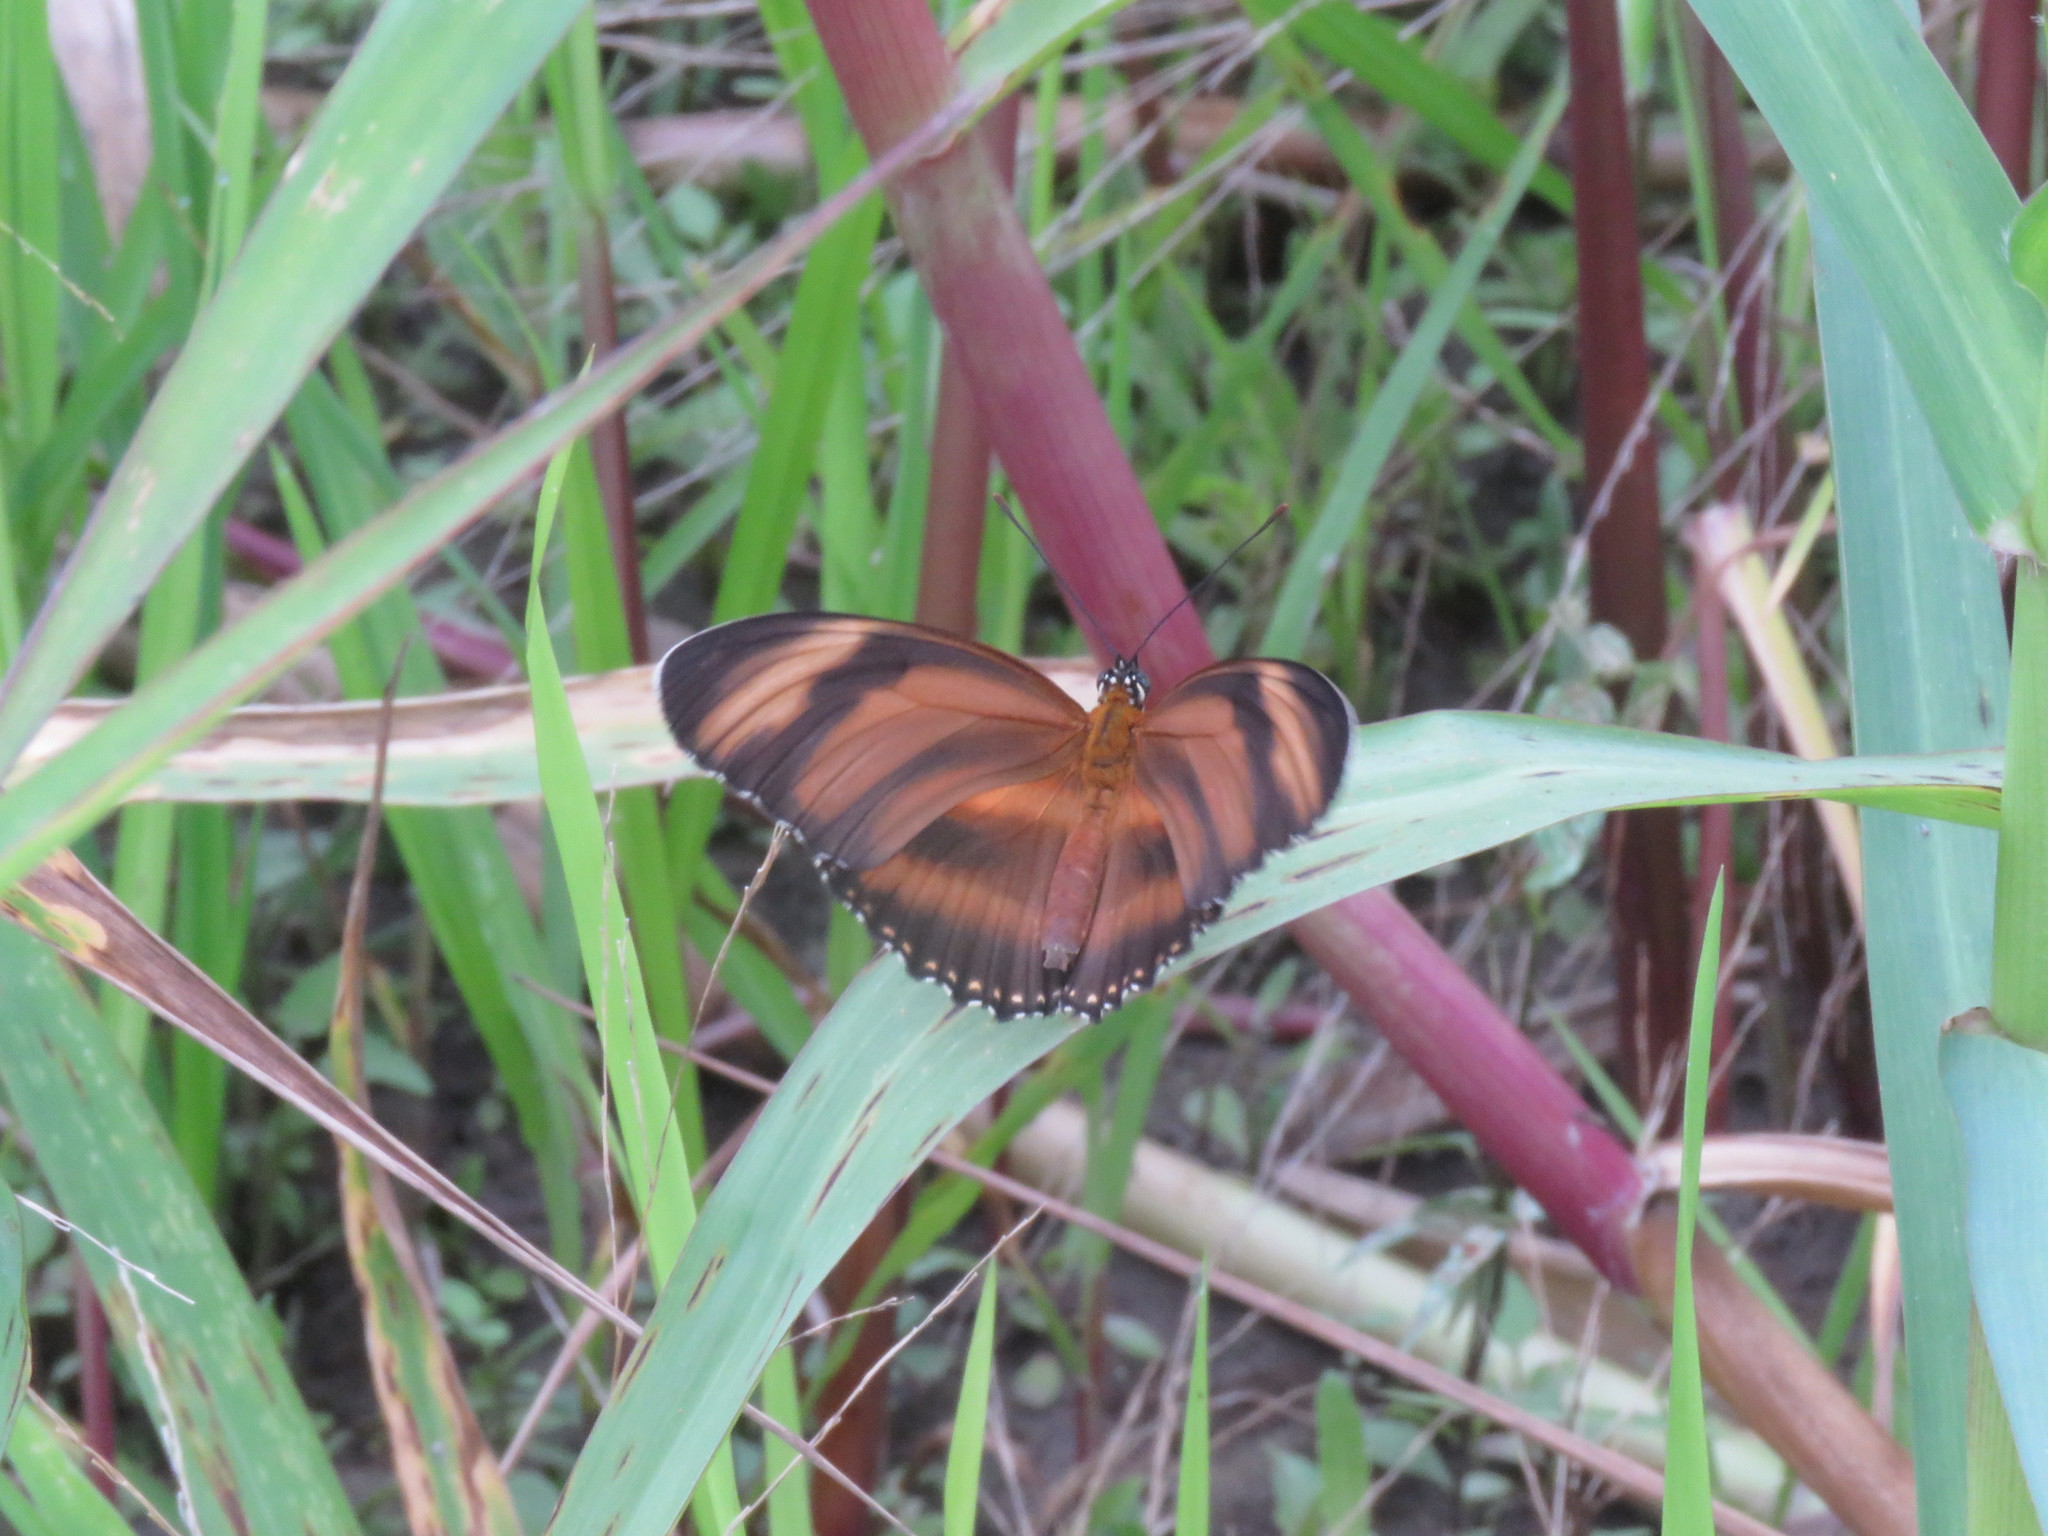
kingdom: Animalia
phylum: Arthropoda
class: Insecta
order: Lepidoptera
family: Nymphalidae
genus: Dryadula
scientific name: Dryadula phaetusa
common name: Banded orange heliconian
